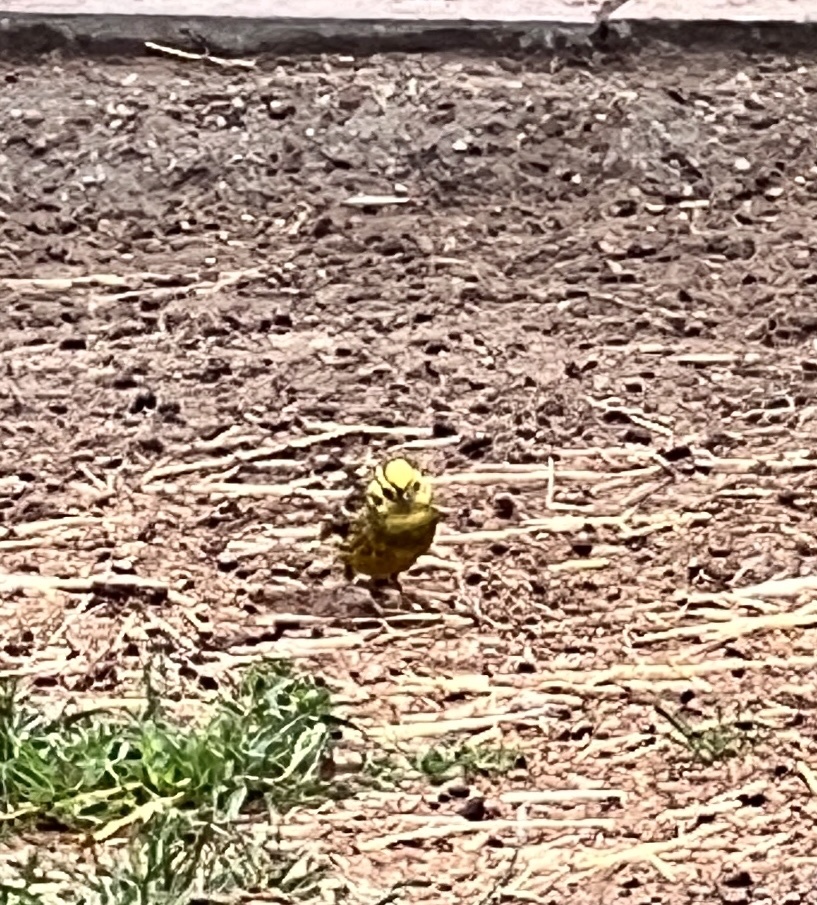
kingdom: Animalia
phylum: Chordata
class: Aves
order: Passeriformes
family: Emberizidae
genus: Emberiza
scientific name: Emberiza citrinella
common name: Yellowhammer
